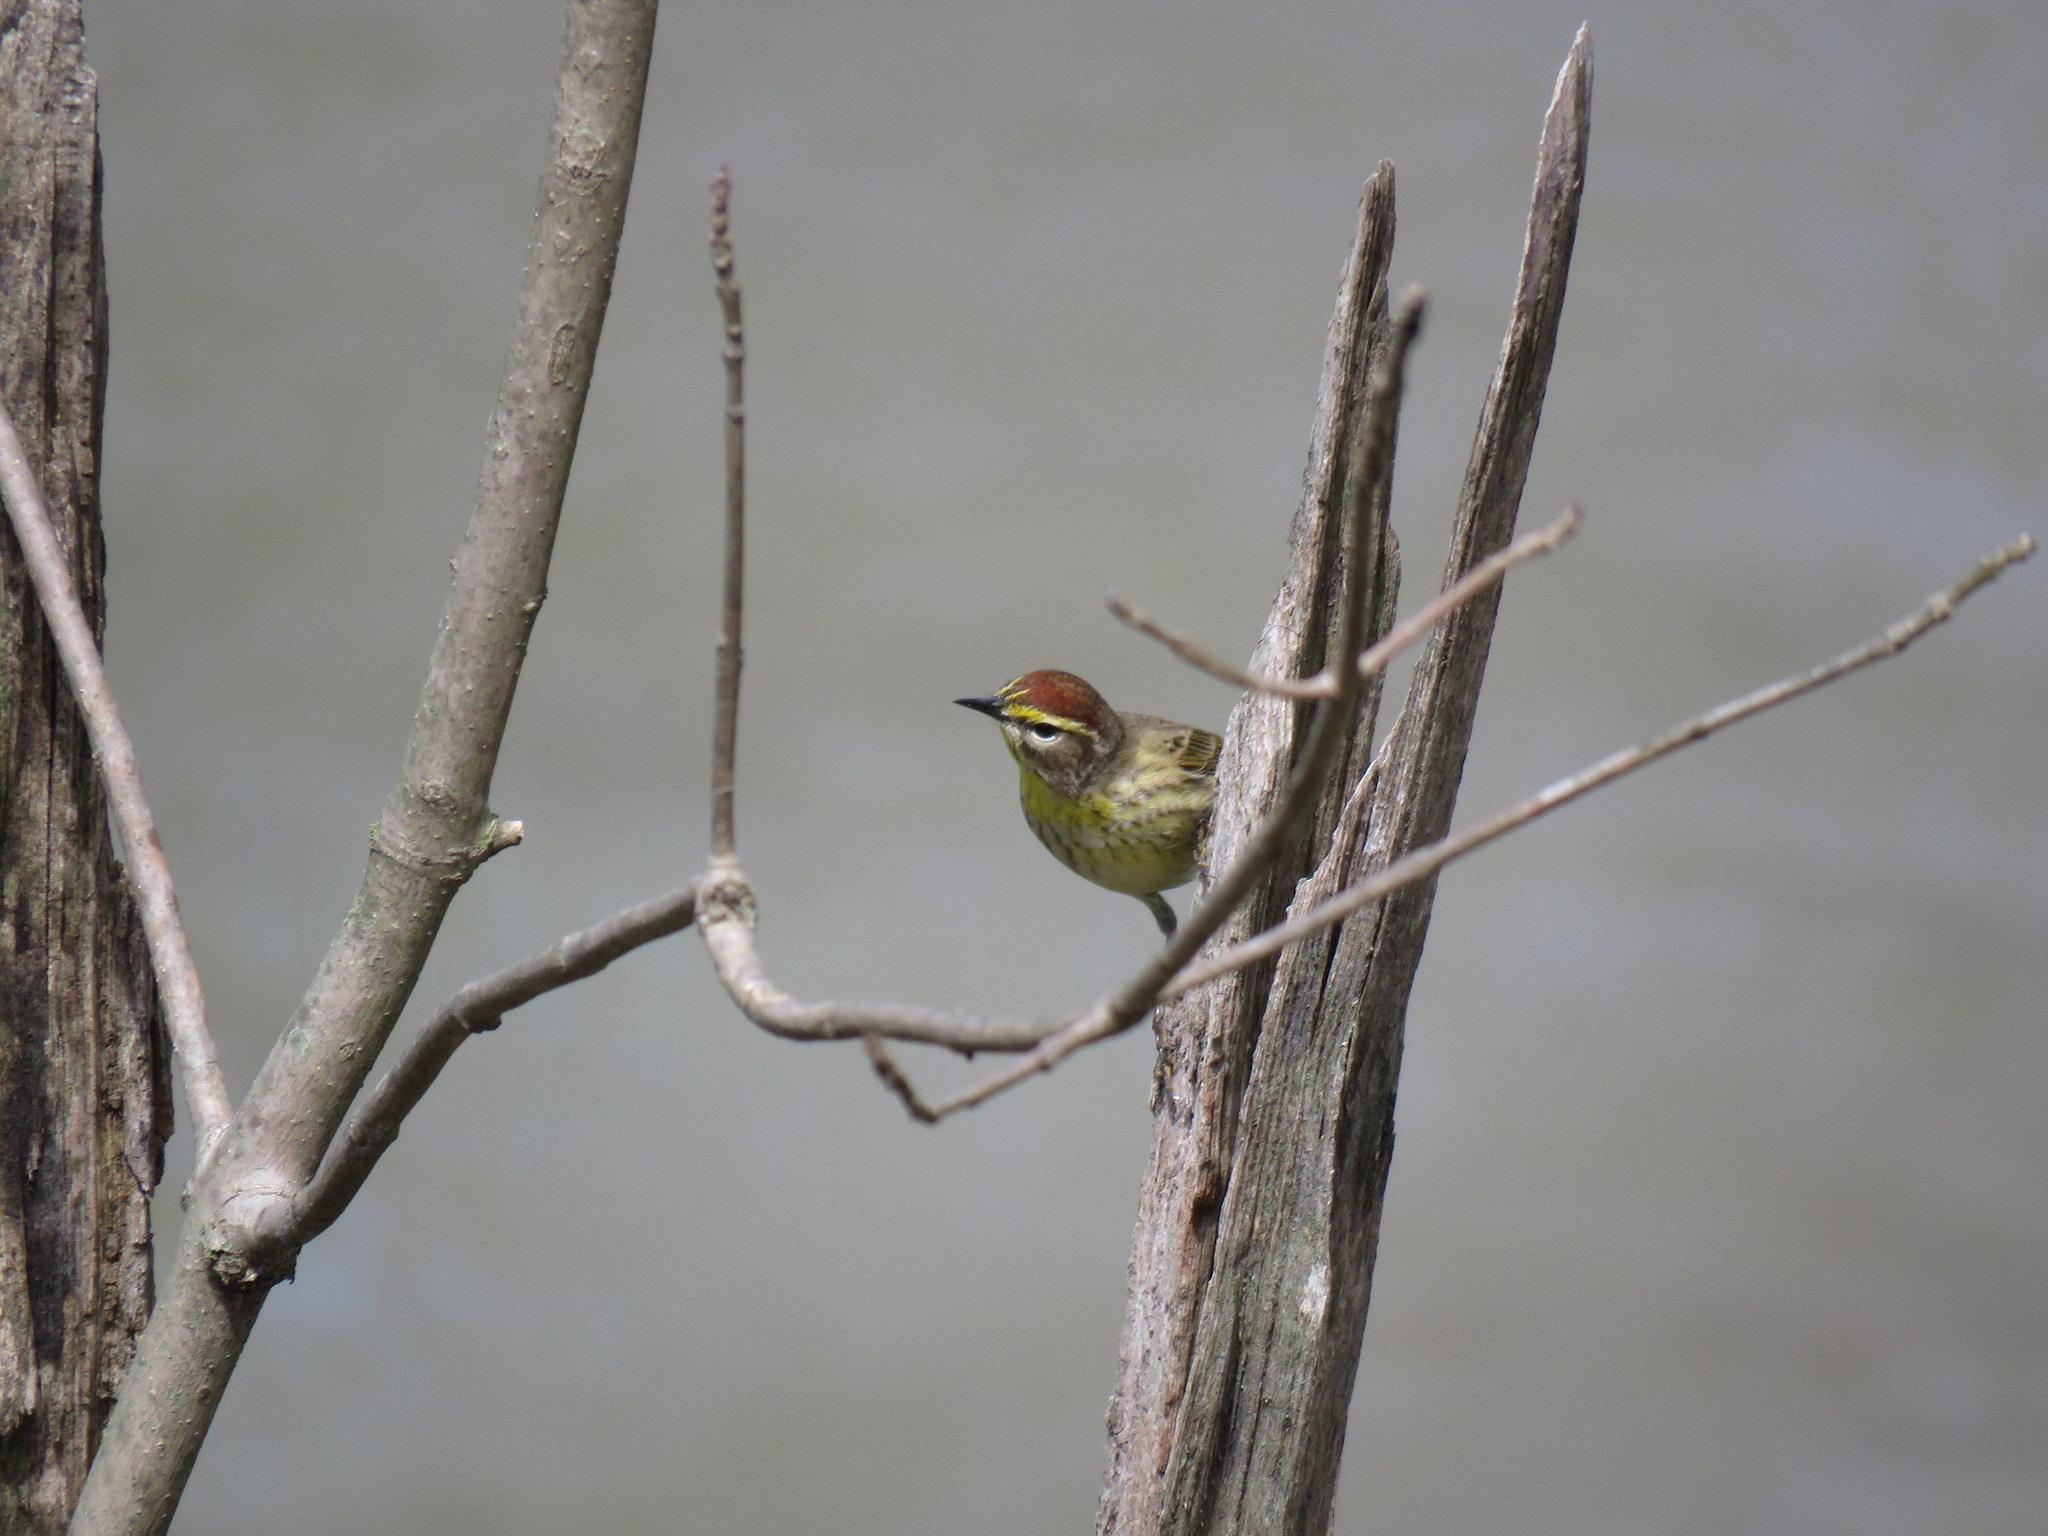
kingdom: Animalia
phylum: Chordata
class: Aves
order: Passeriformes
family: Parulidae
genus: Setophaga
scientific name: Setophaga palmarum
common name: Palm warbler
